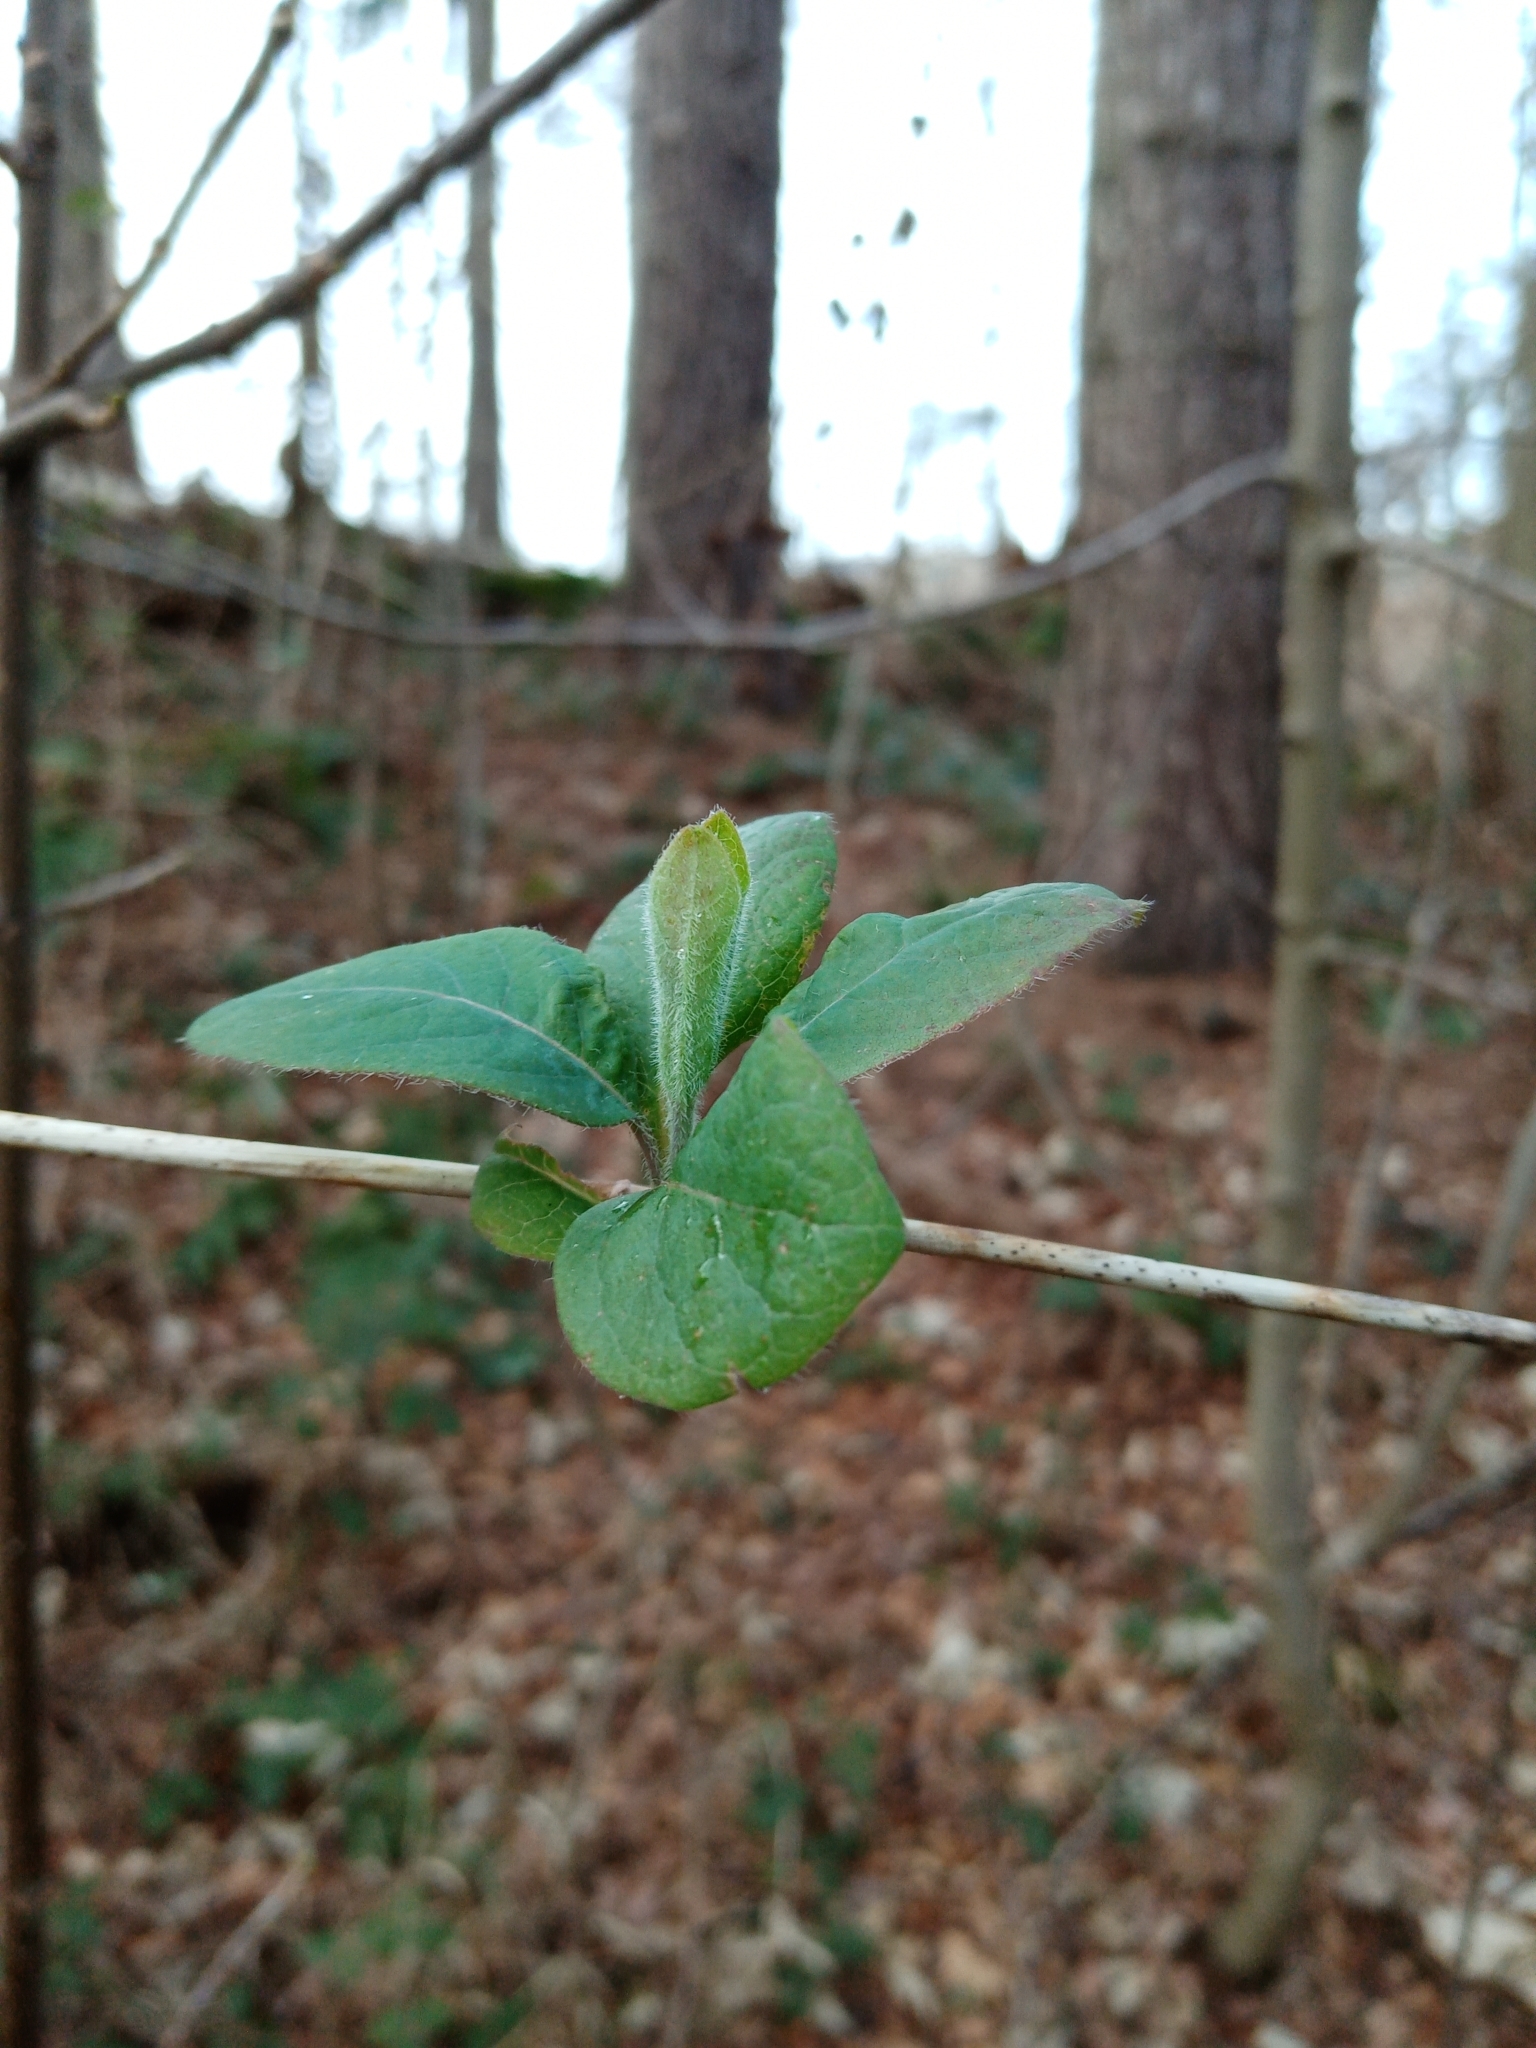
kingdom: Plantae
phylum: Tracheophyta
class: Magnoliopsida
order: Dipsacales
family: Caprifoliaceae
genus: Lonicera
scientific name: Lonicera periclymenum
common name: European honeysuckle
